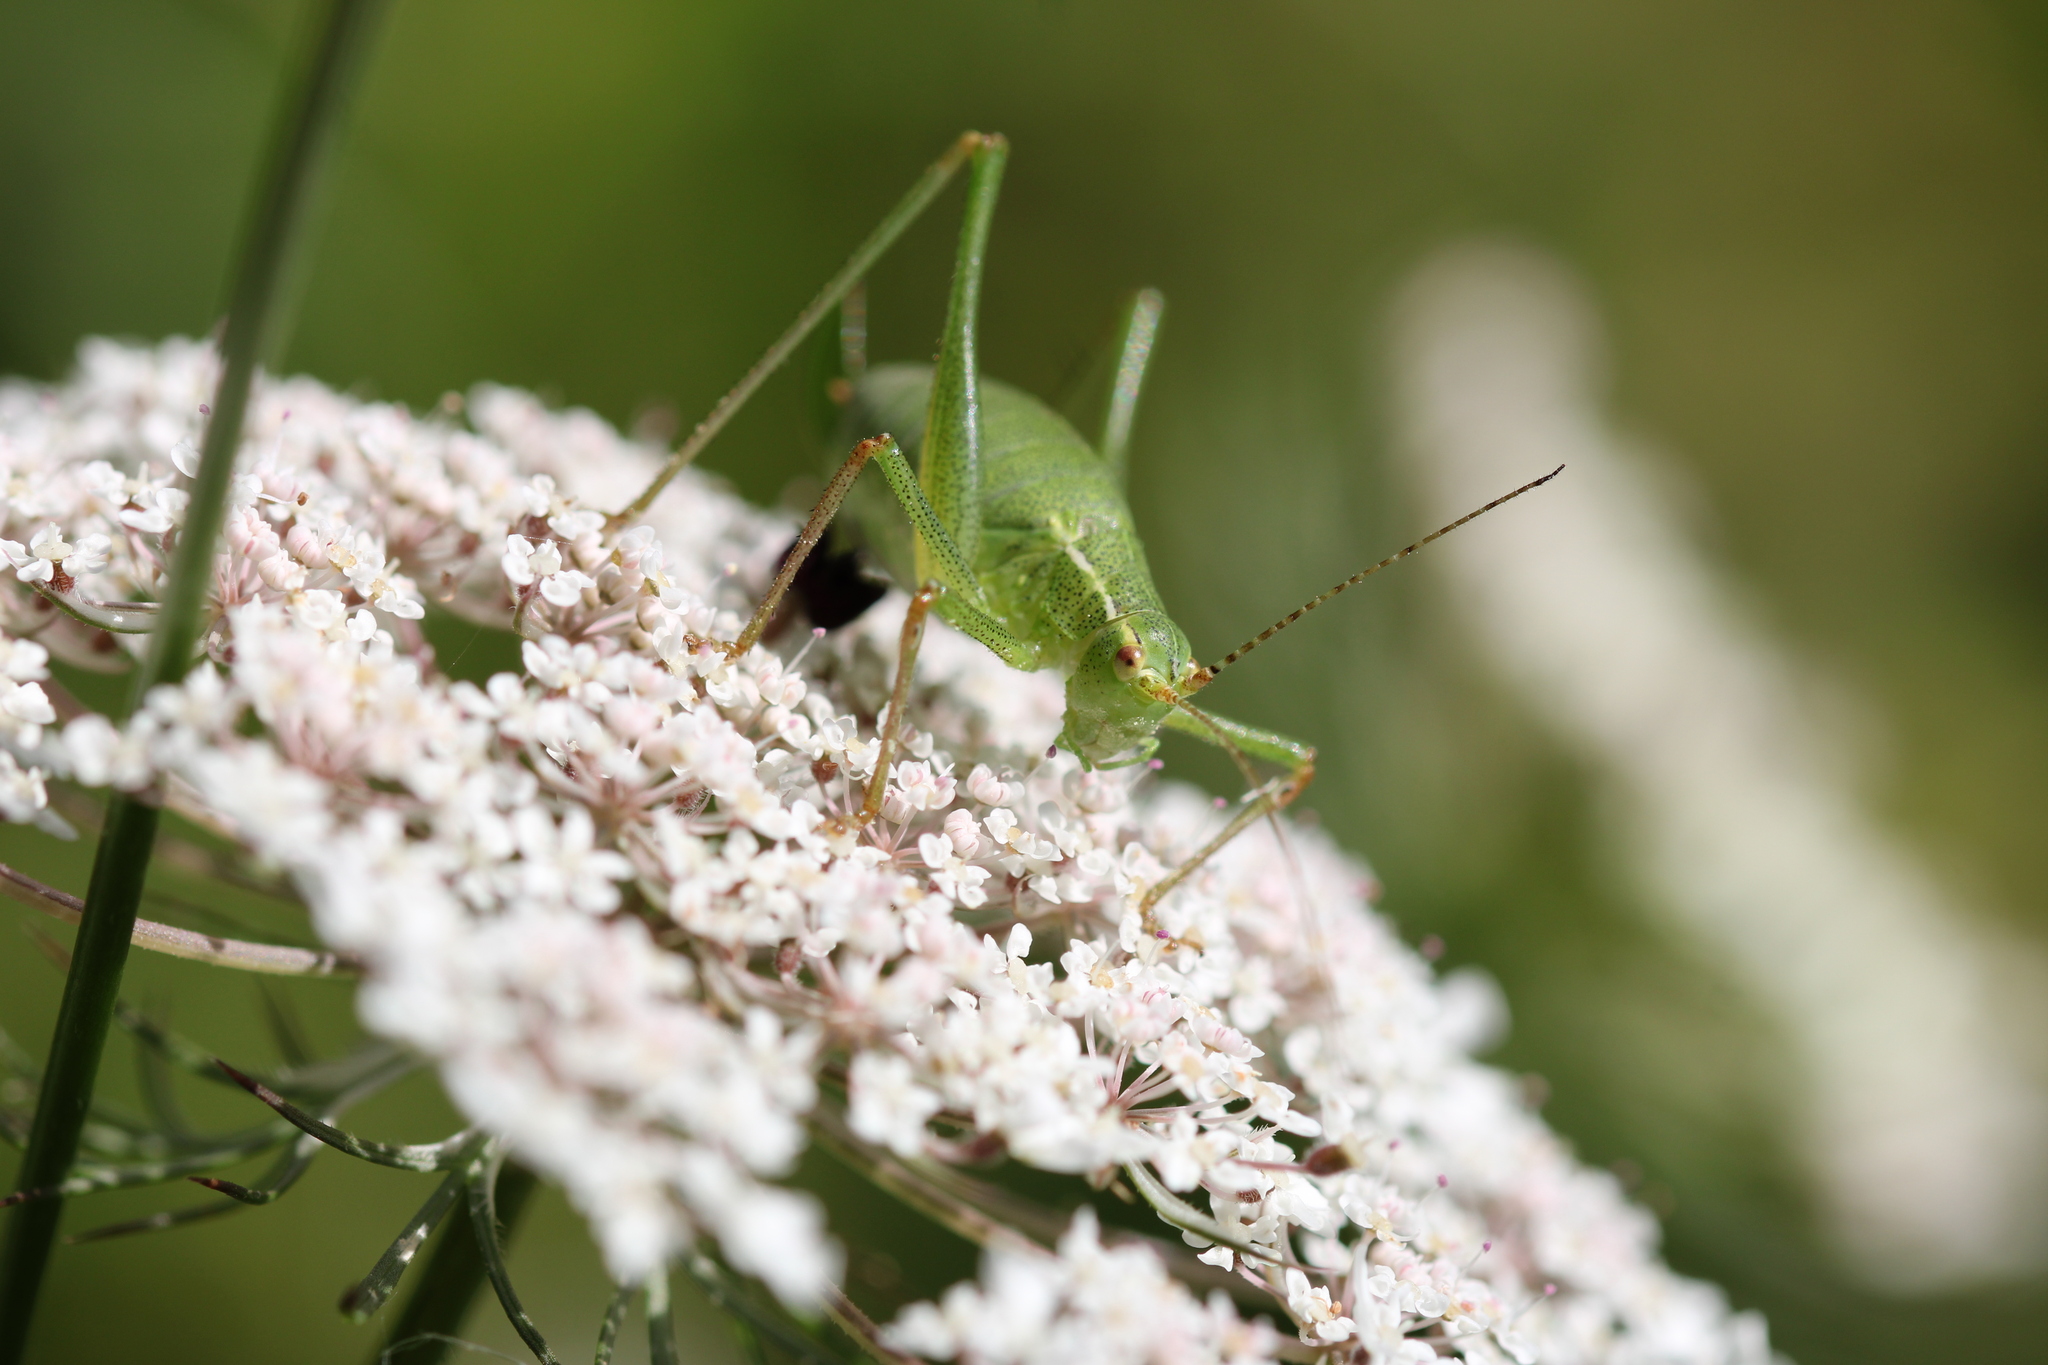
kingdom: Animalia
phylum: Arthropoda
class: Insecta
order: Orthoptera
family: Tettigoniidae
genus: Leptophyes
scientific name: Leptophyes punctatissima
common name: Speckled bush-cricket
